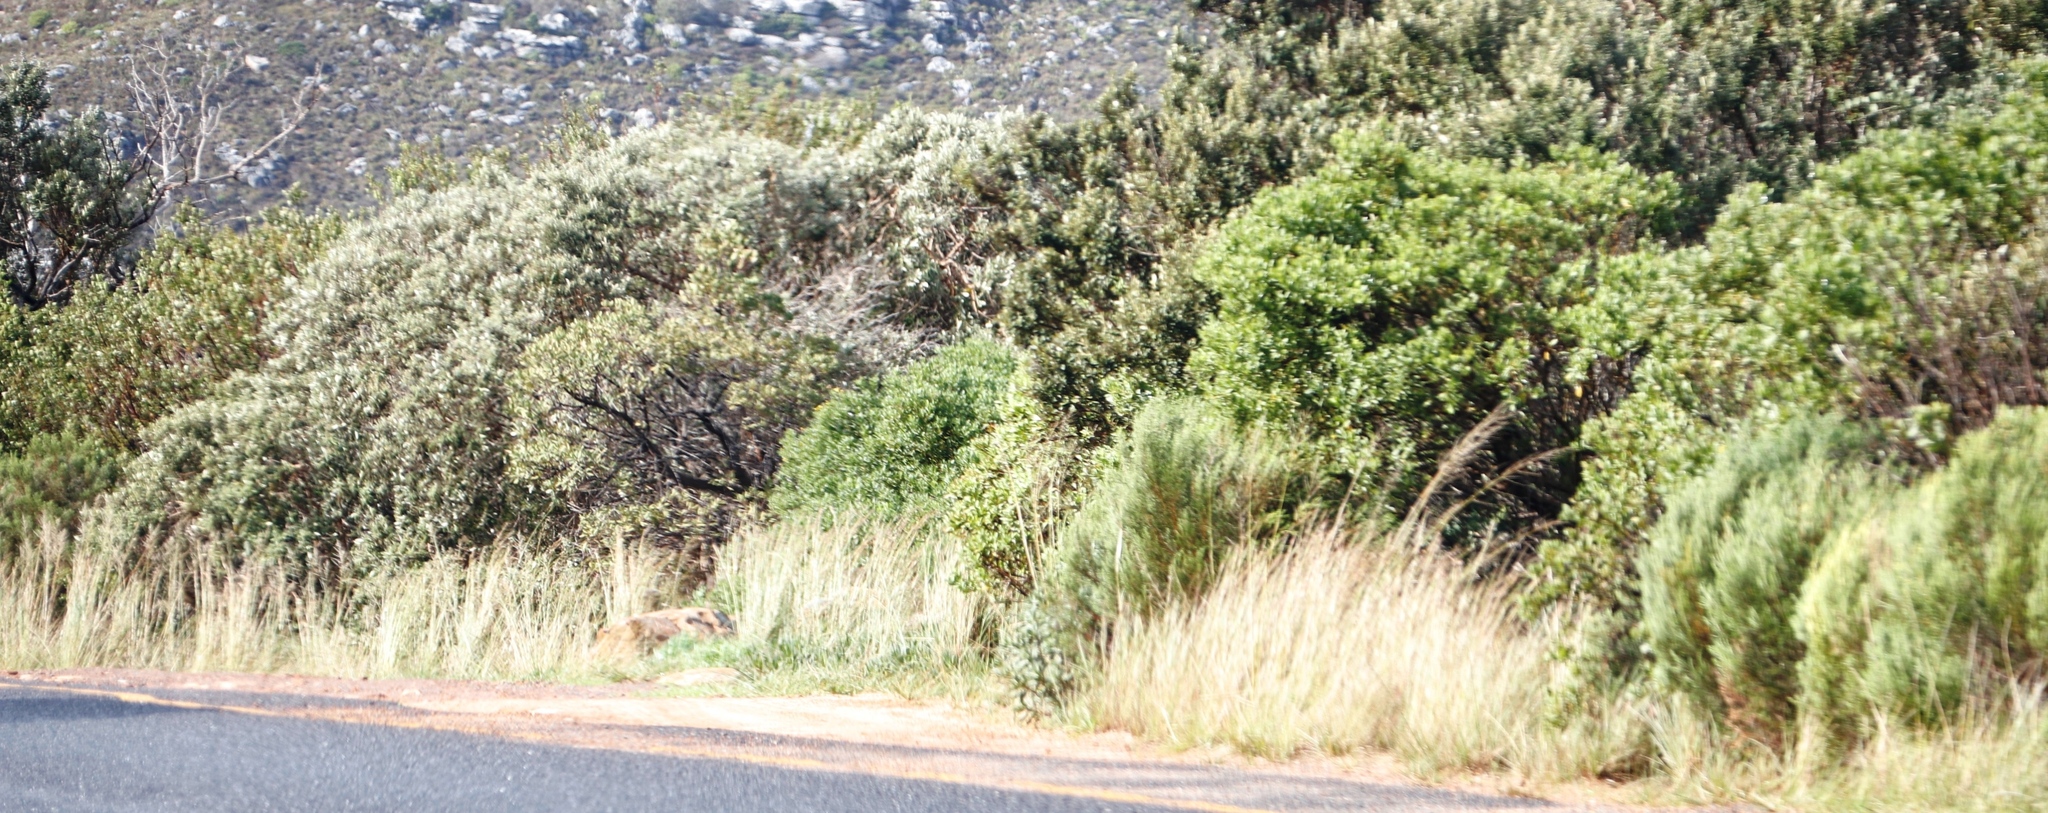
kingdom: Plantae
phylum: Tracheophyta
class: Liliopsida
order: Poales
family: Poaceae
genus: Hyparrhenia
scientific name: Hyparrhenia hirta
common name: Thatching grass
